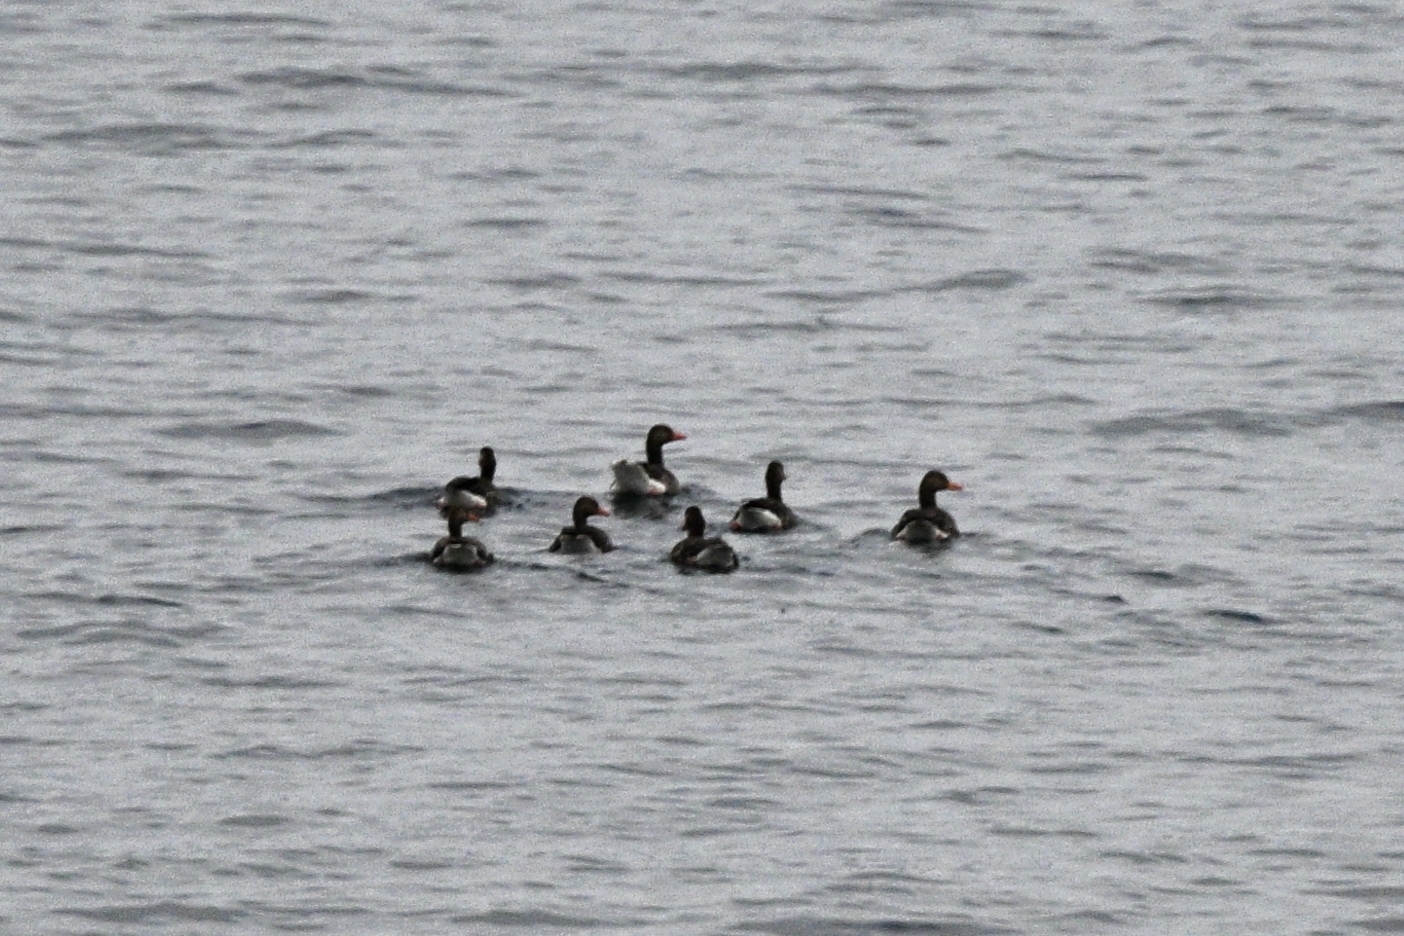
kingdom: Animalia
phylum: Chordata
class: Aves
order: Anseriformes
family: Anatidae
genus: Anser
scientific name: Anser anser
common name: Greylag goose
